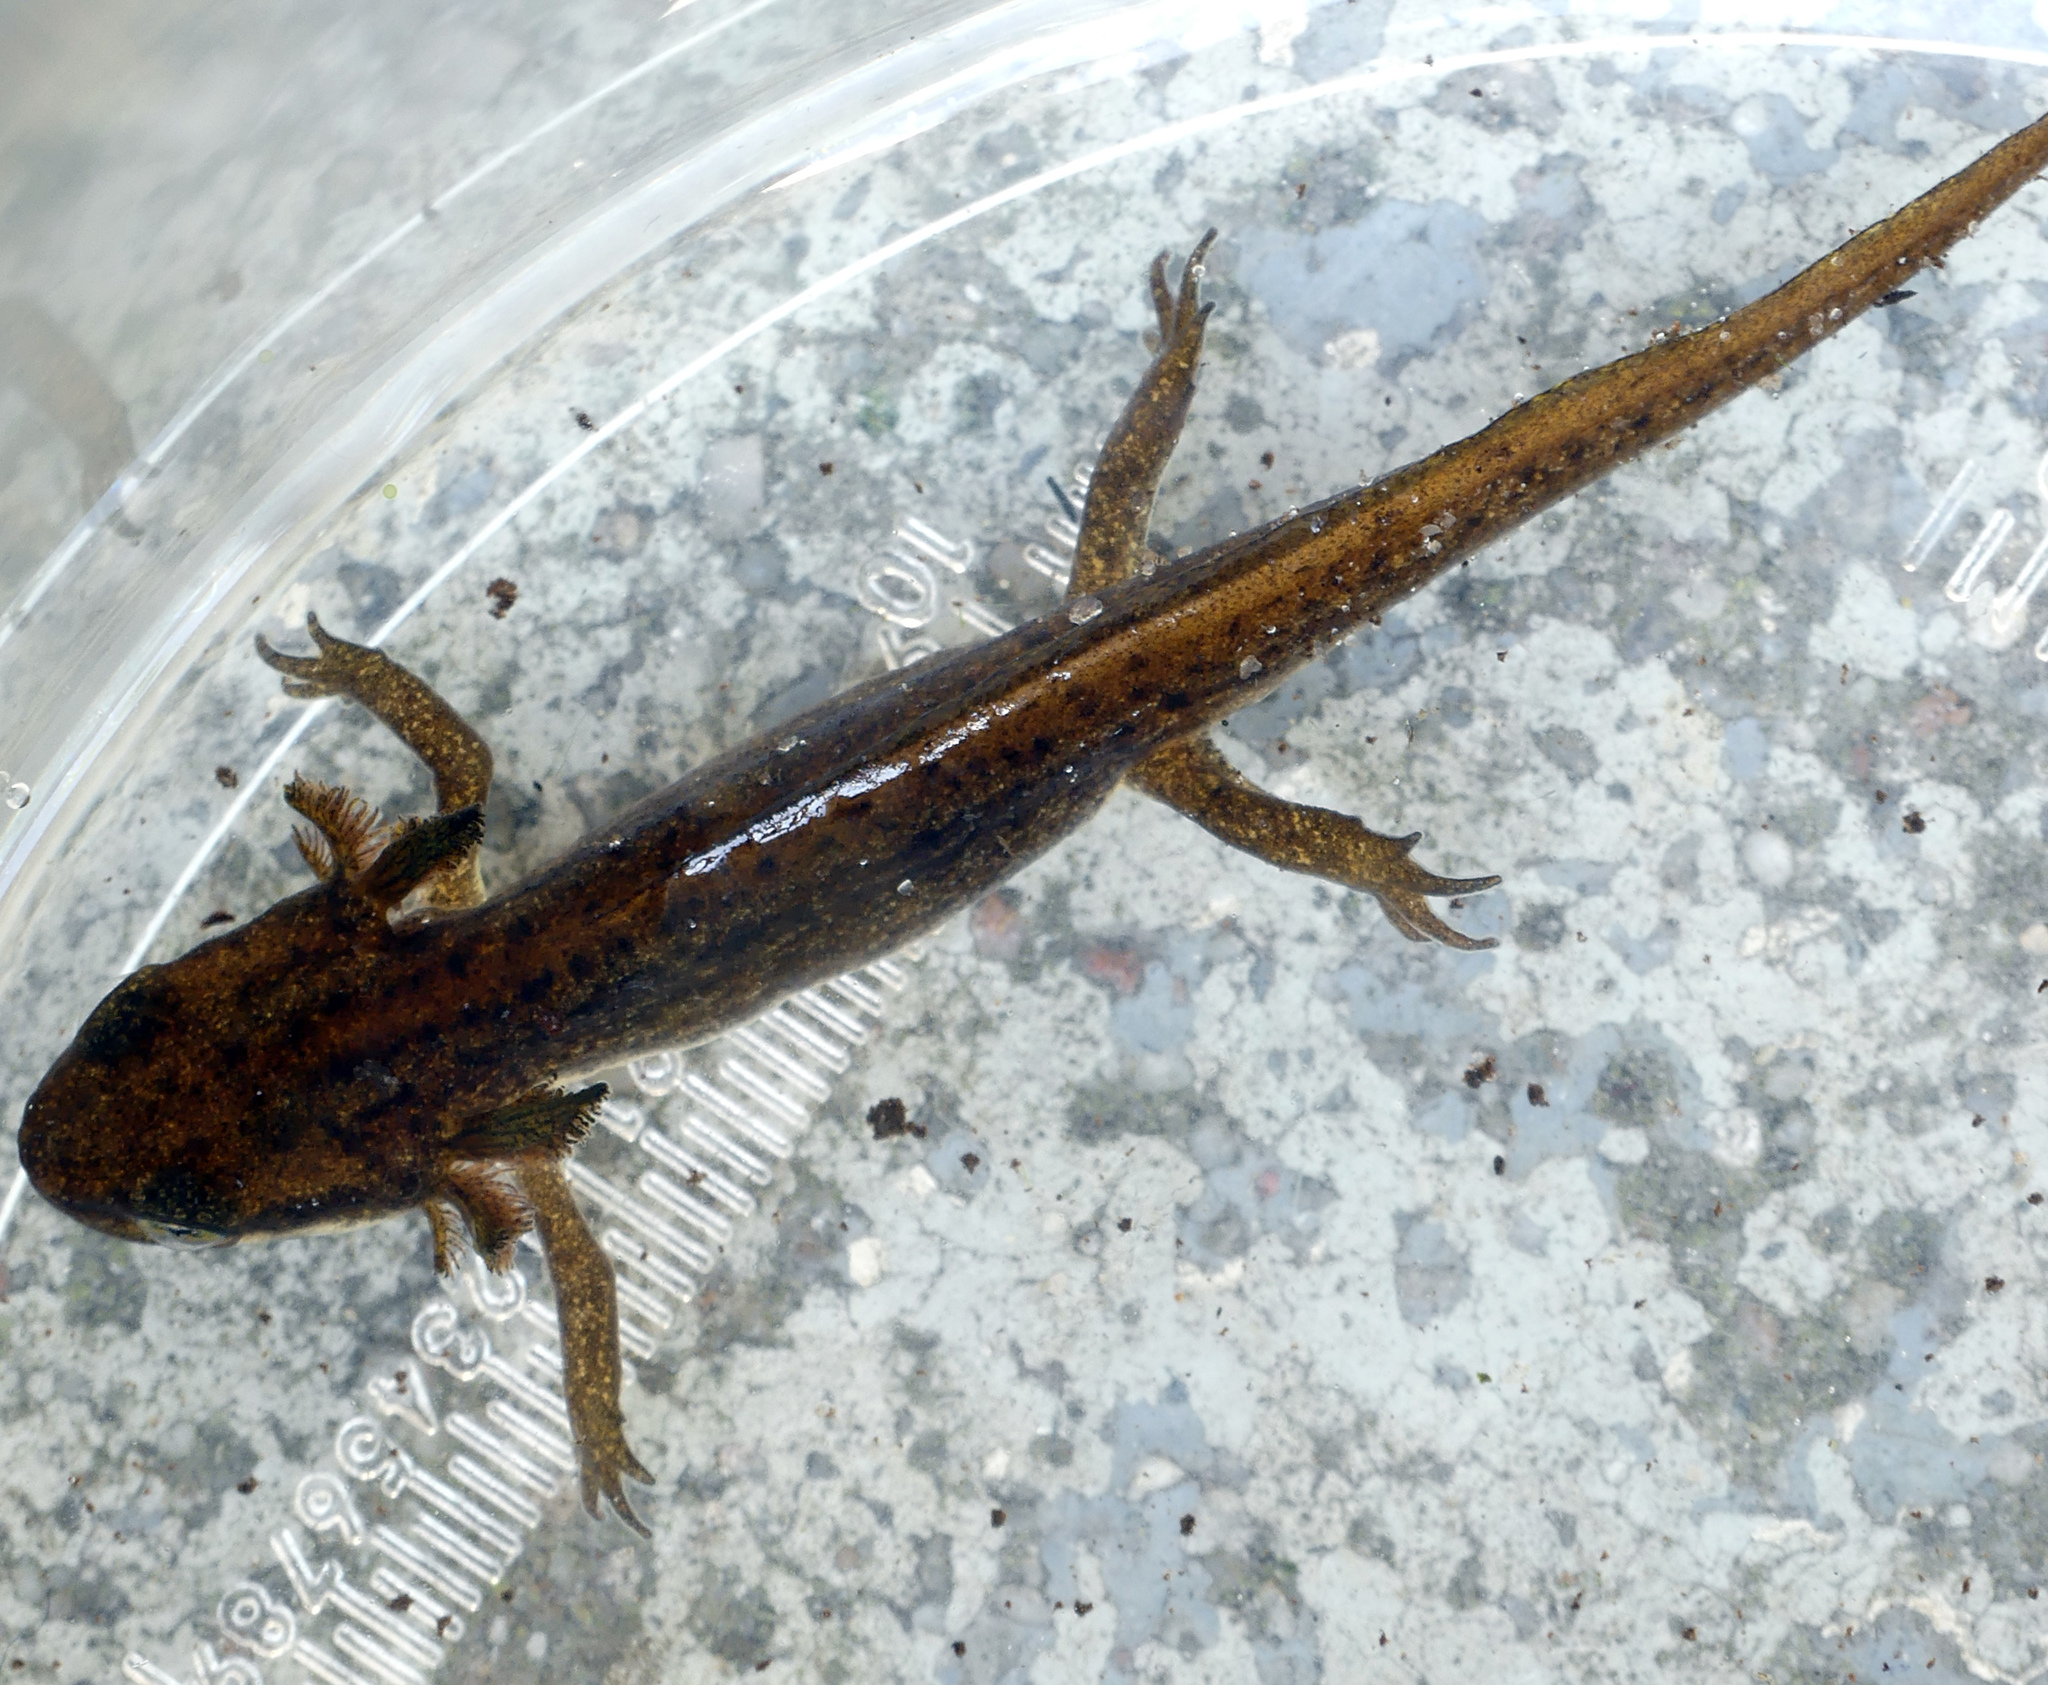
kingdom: Animalia
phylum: Chordata
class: Amphibia
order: Caudata
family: Salamandridae
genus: Lissotriton
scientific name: Lissotriton vulgaris
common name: Smooth newt
